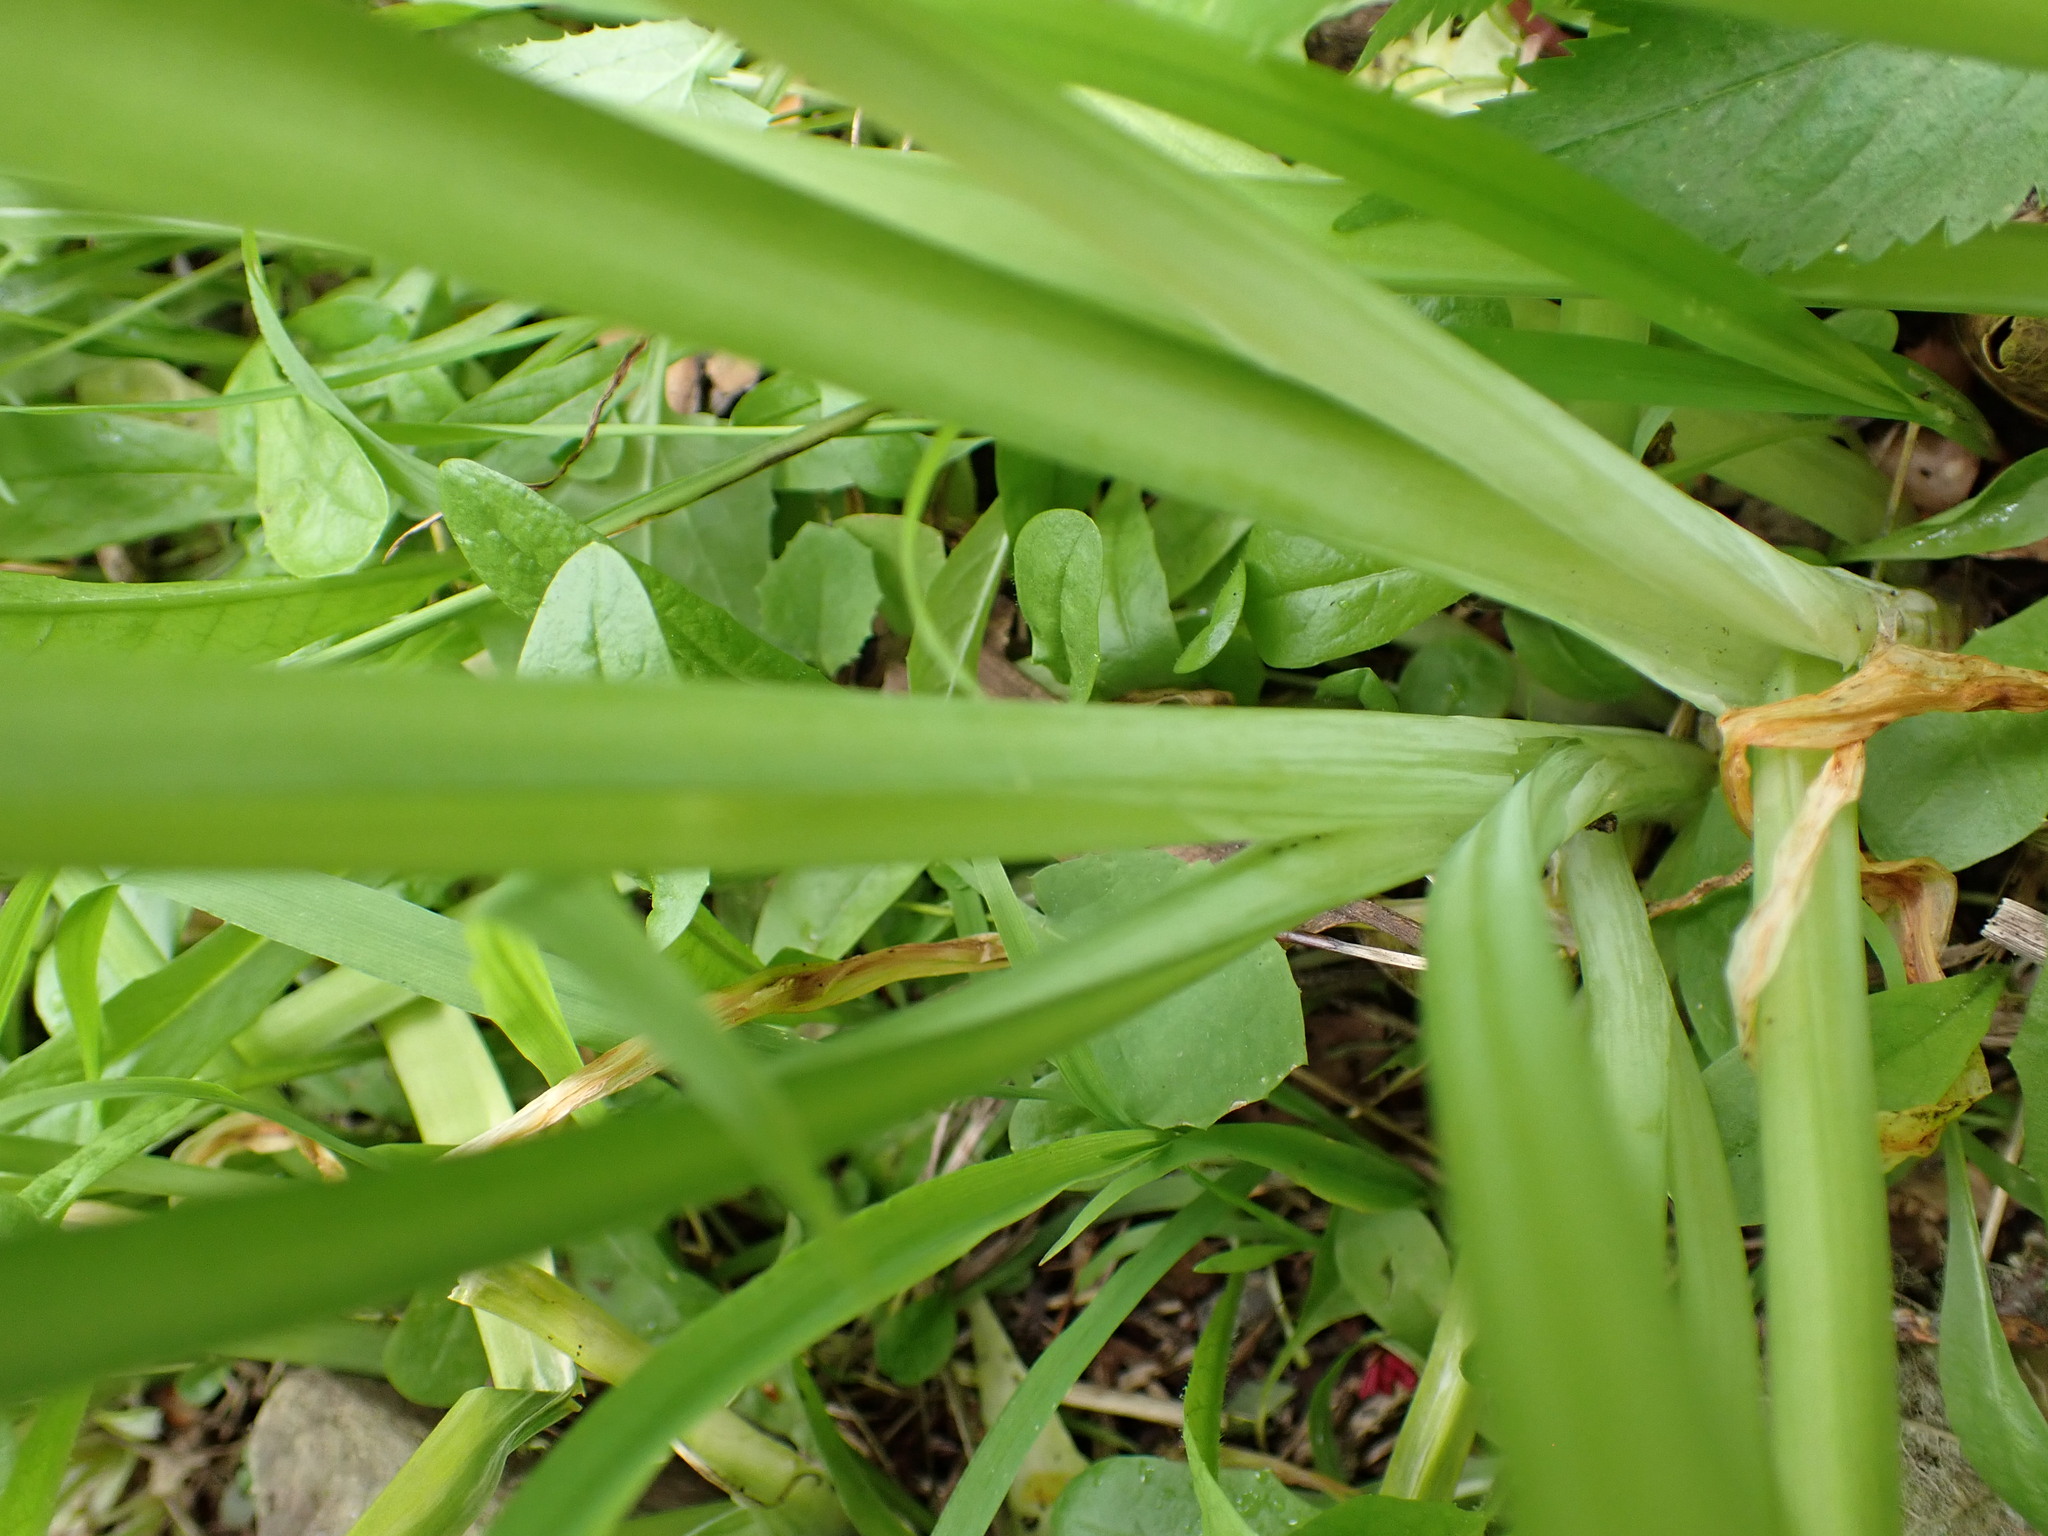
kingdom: Plantae
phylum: Tracheophyta
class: Liliopsida
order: Asparagales
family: Amaryllidaceae
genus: Allium
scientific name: Allium triquetrum
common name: Three-cornered garlic
